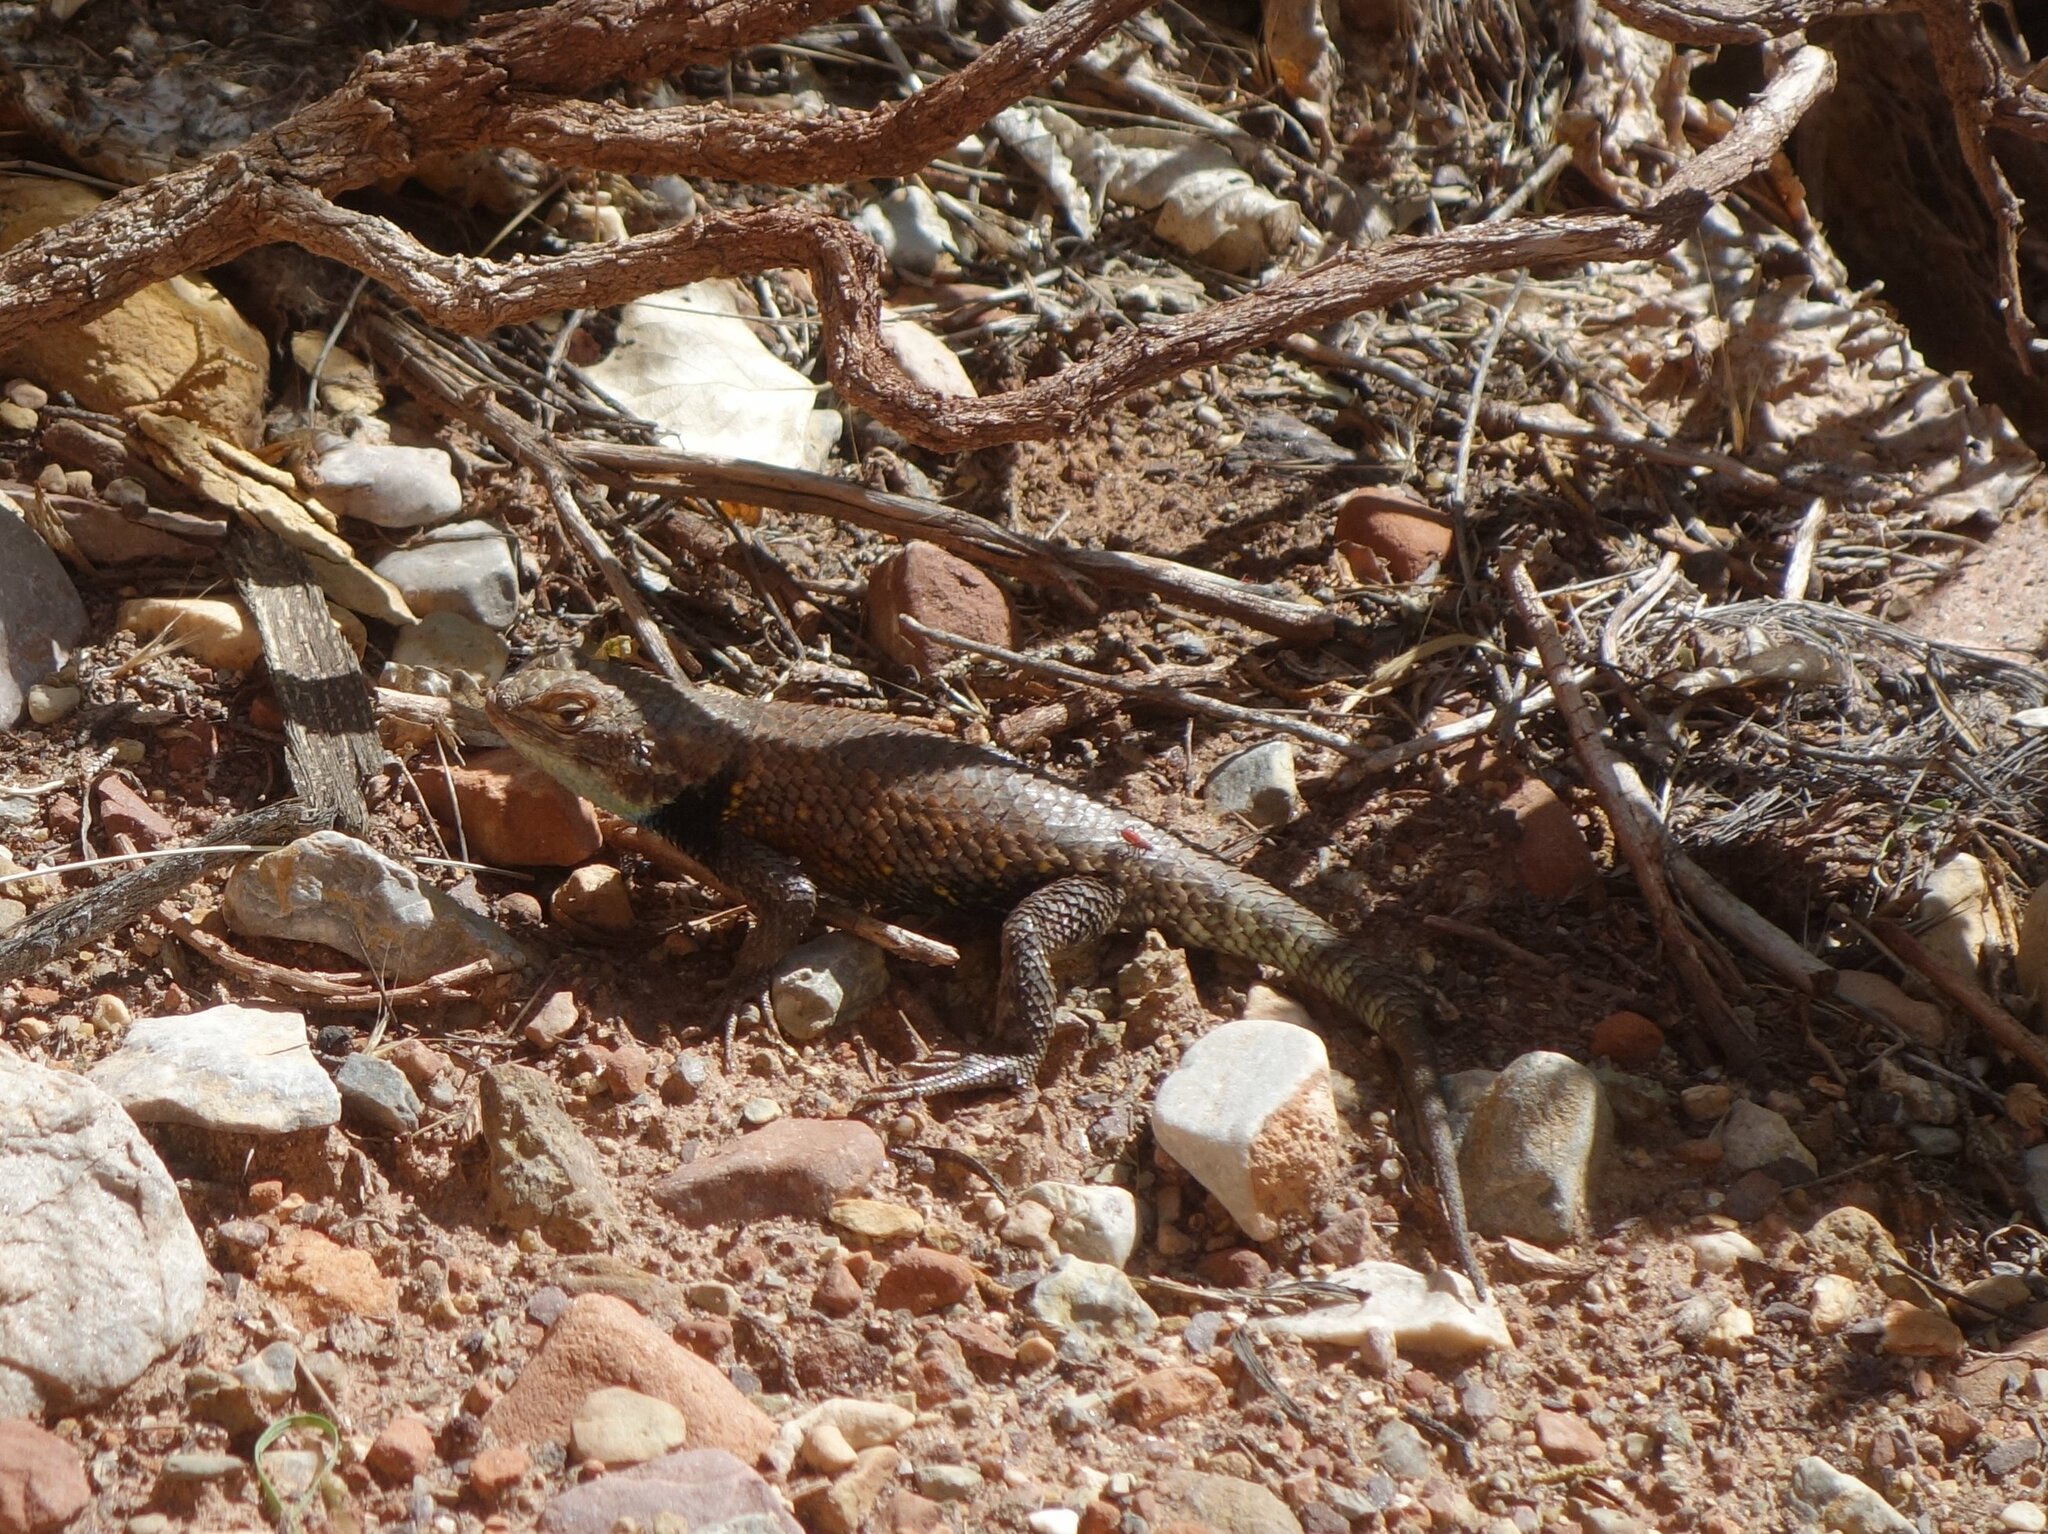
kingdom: Animalia
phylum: Chordata
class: Squamata
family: Phrynosomatidae
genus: Sceloporus
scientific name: Sceloporus magister
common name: Desert spiny lizard
